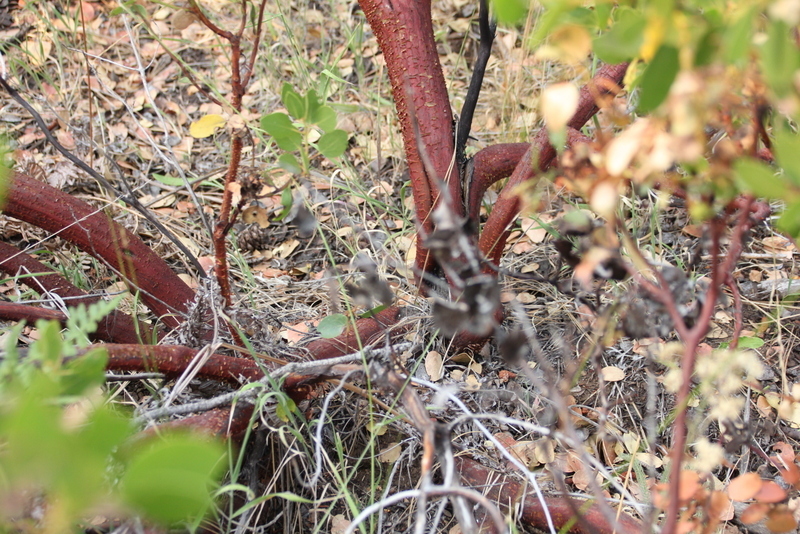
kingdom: Plantae
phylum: Tracheophyta
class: Magnoliopsida
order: Ericales
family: Ericaceae
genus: Arctostaphylos
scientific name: Arctostaphylos patula
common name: Green-leaf manzanita
